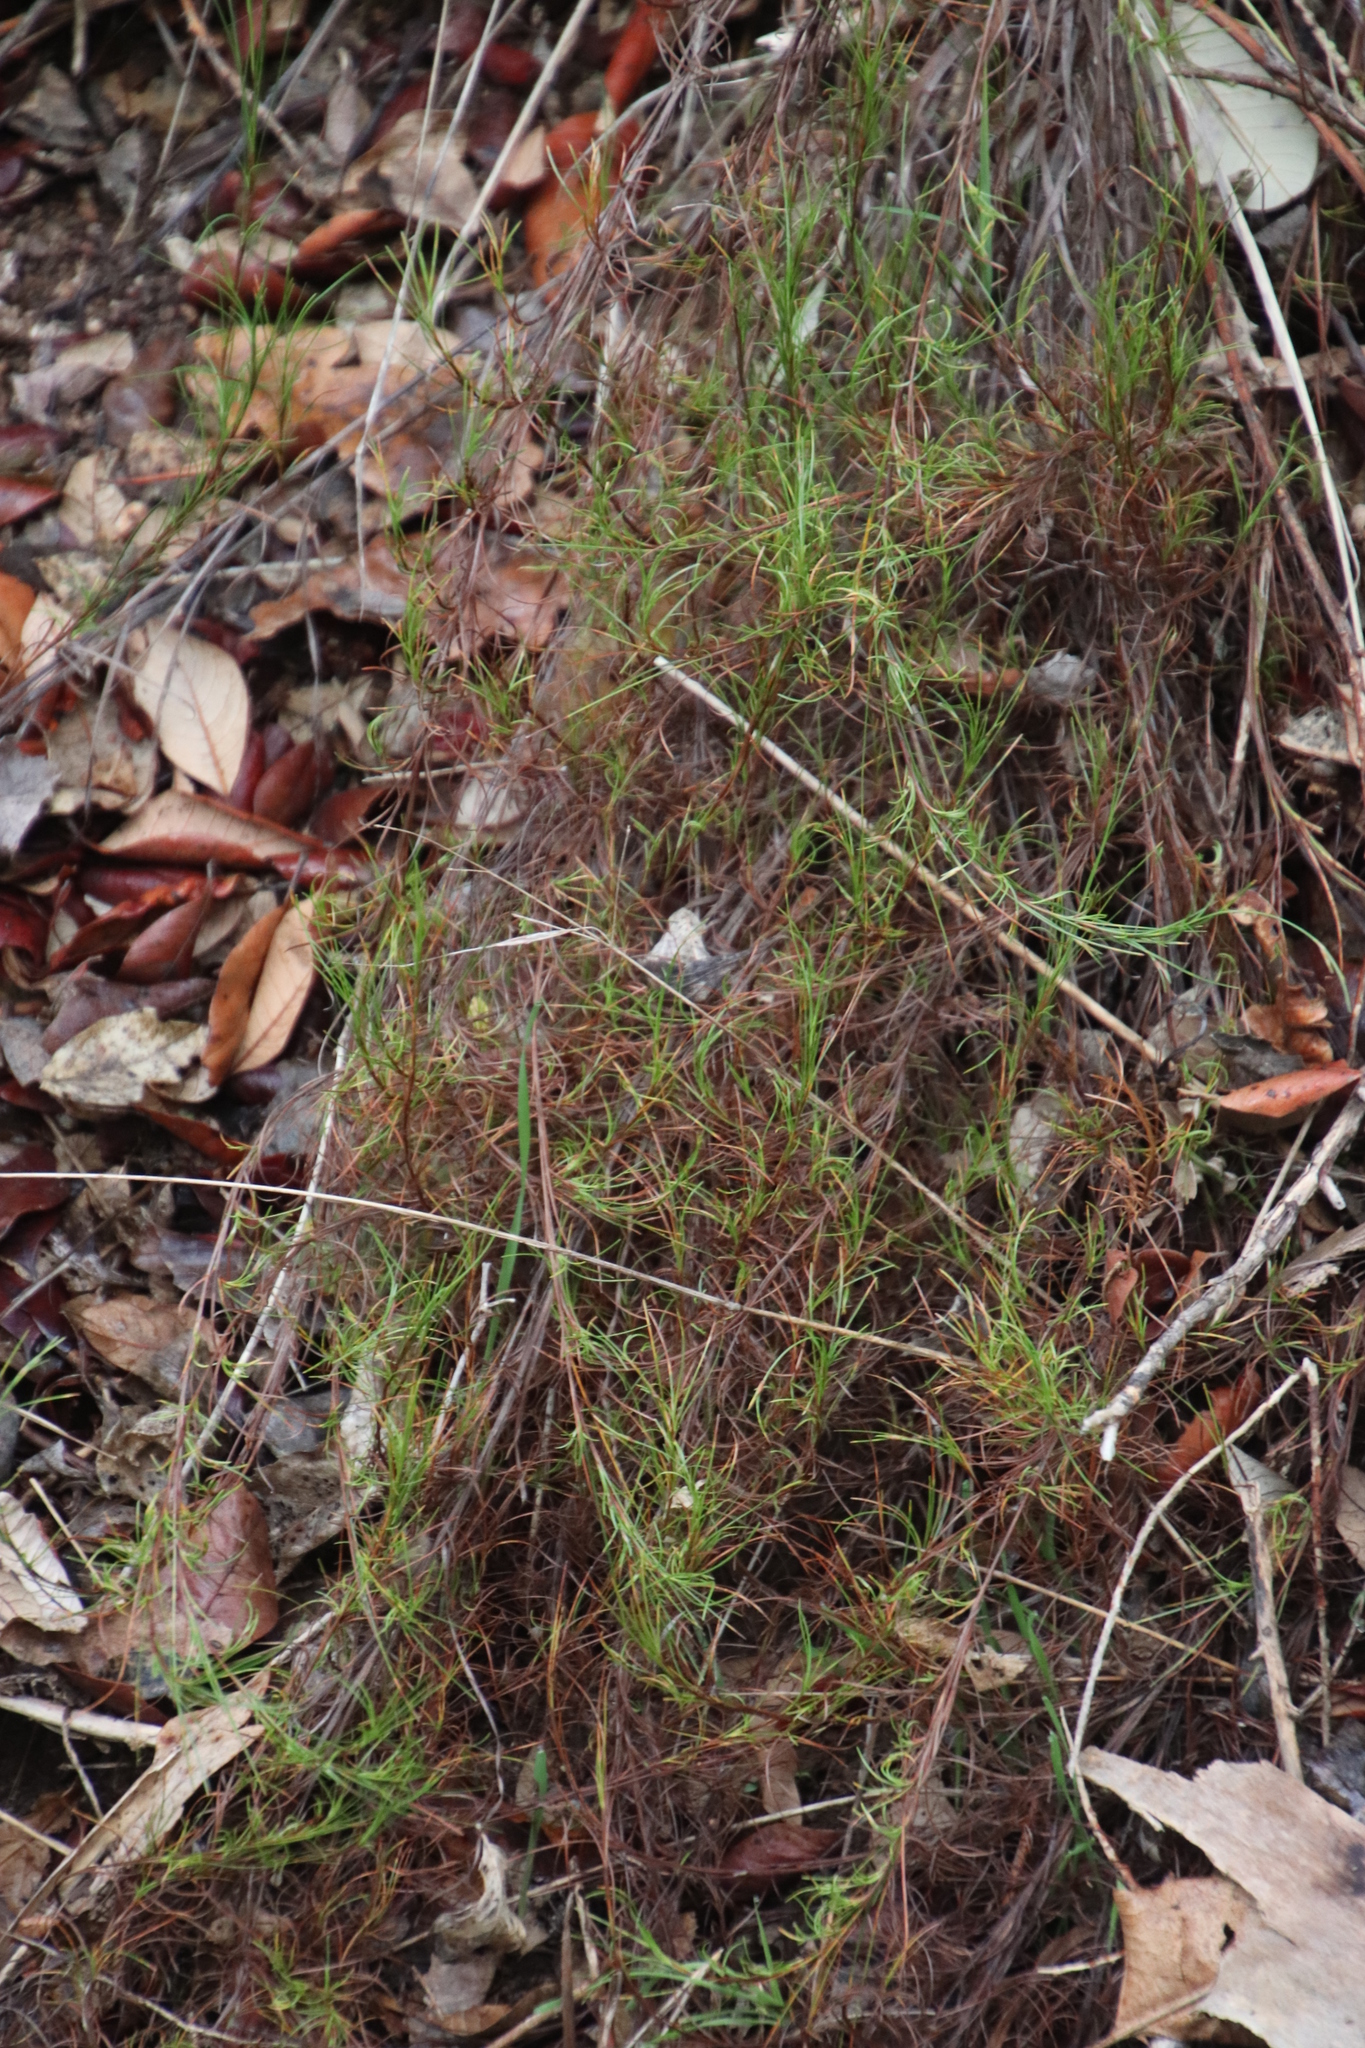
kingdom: Plantae
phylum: Tracheophyta
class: Liliopsida
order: Poales
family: Cyperaceae
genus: Ficinia
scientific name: Ficinia trichodes
